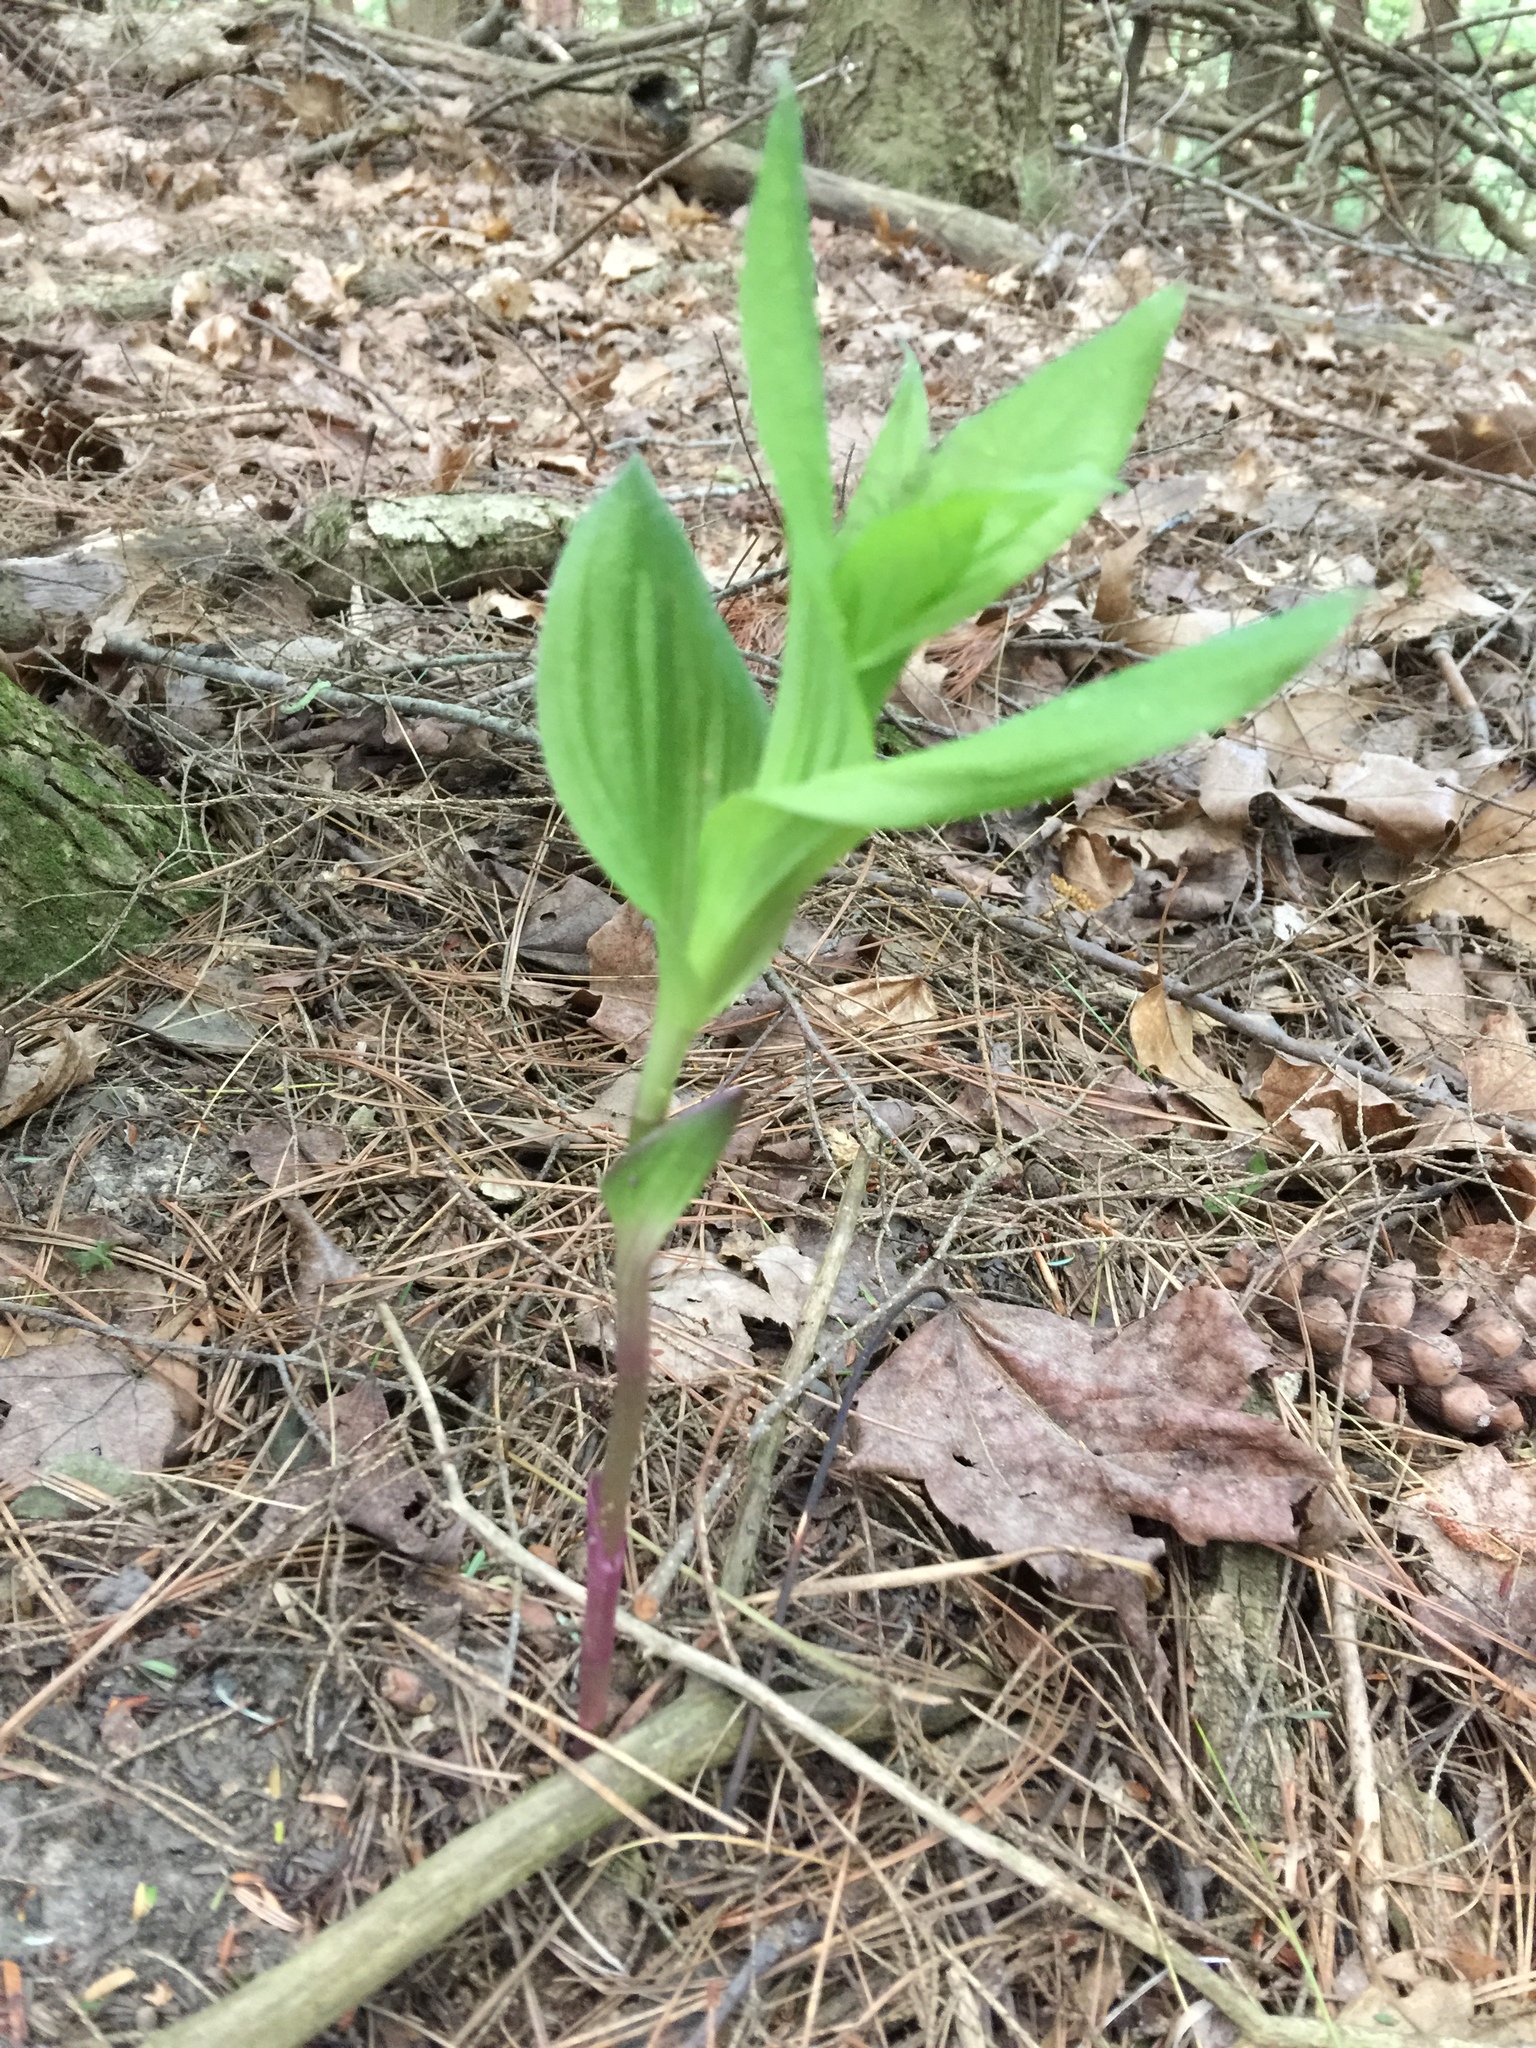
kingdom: Plantae
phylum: Tracheophyta
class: Liliopsida
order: Asparagales
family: Orchidaceae
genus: Epipactis
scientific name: Epipactis helleborine
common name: Broad-leaved helleborine
